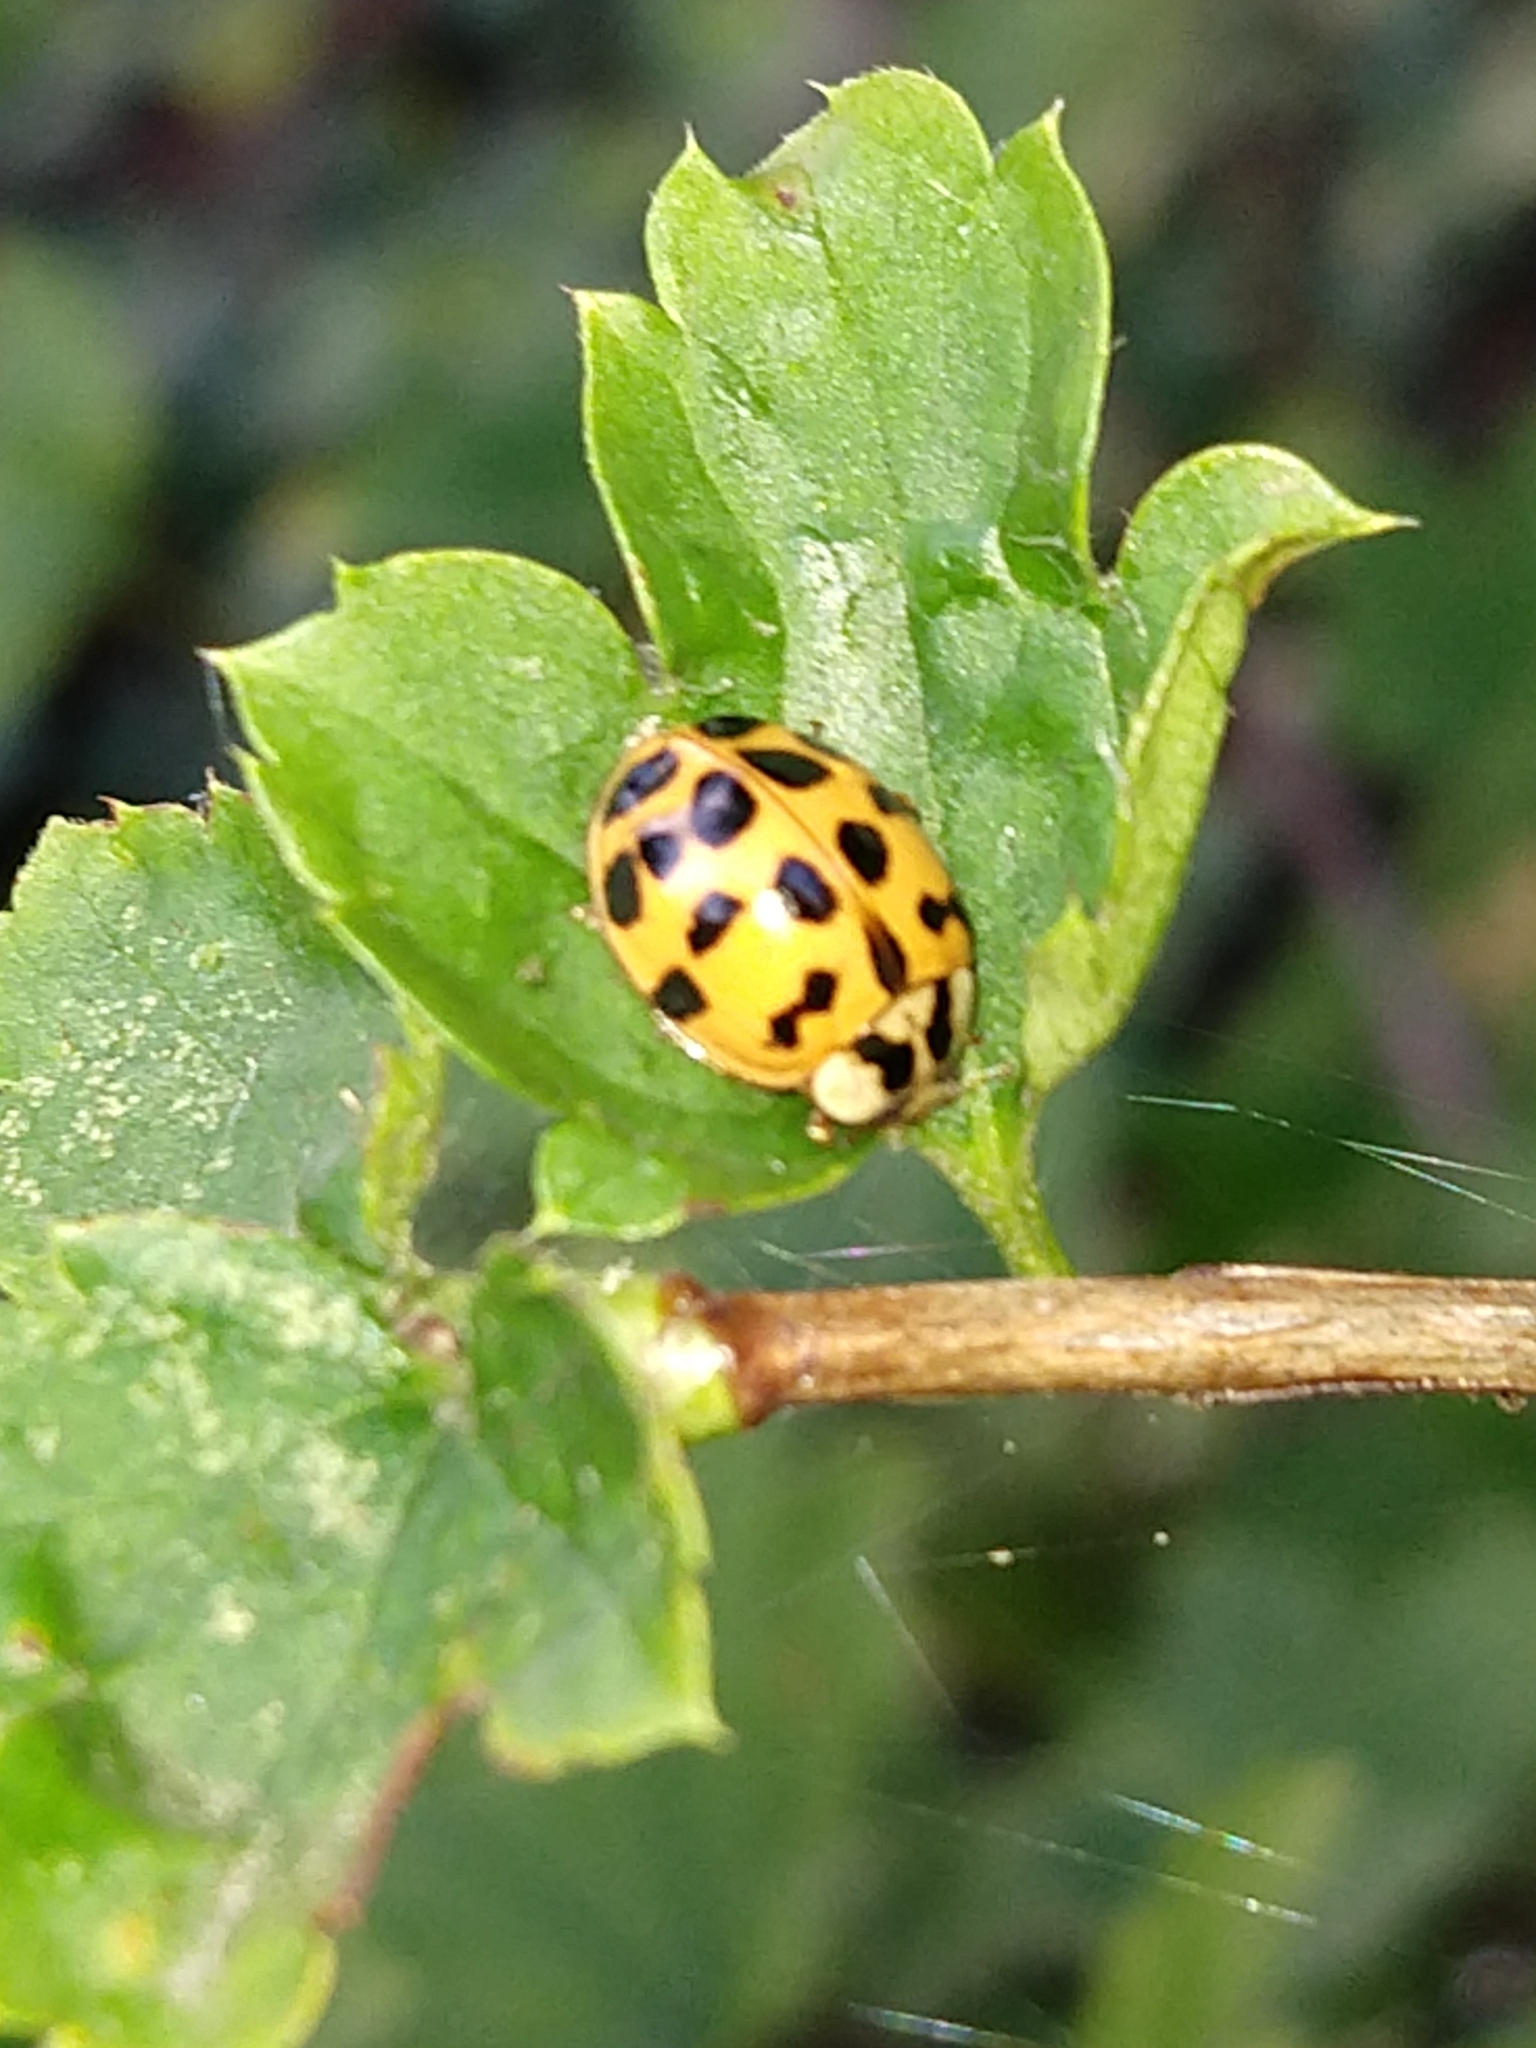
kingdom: Animalia
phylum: Arthropoda
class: Insecta
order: Coleoptera
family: Coccinellidae
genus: Harmonia
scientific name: Harmonia axyridis
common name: Harlequin ladybird
